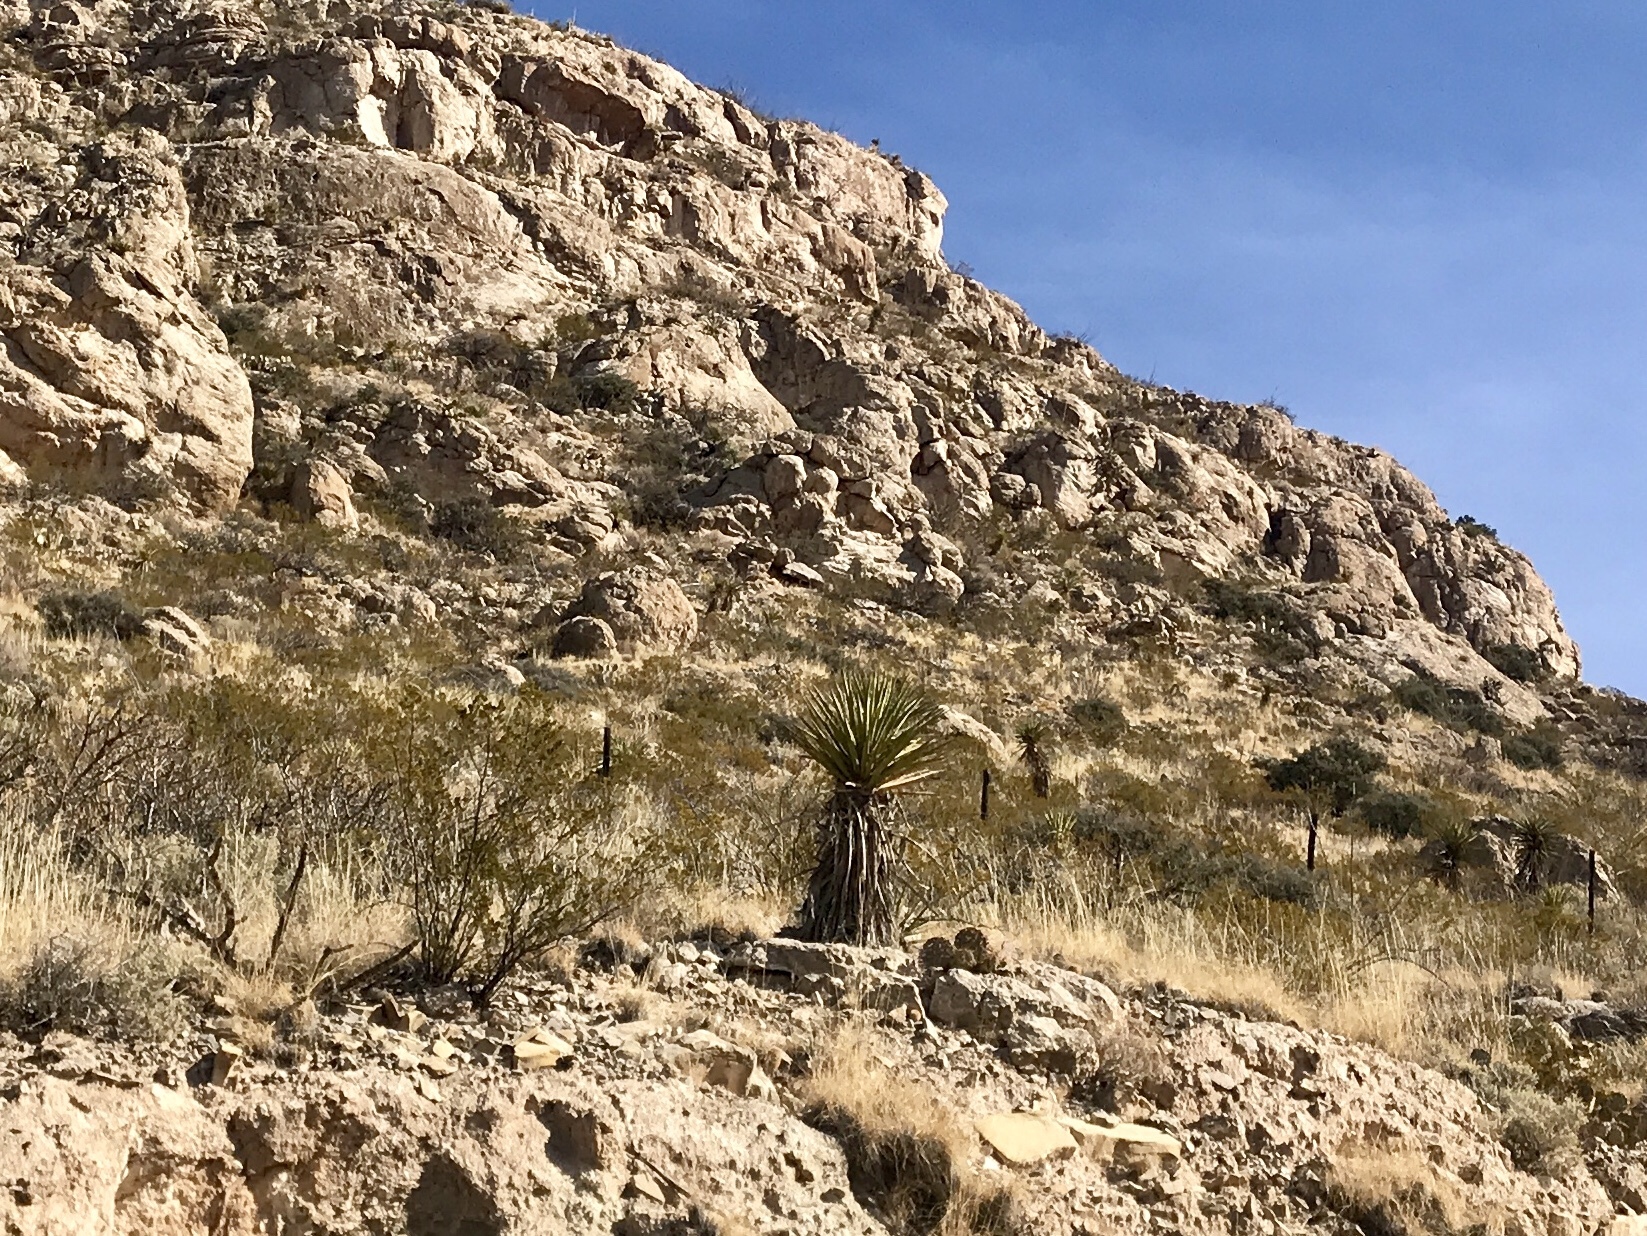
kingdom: Plantae
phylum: Tracheophyta
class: Liliopsida
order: Asparagales
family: Asparagaceae
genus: Yucca
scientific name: Yucca treculiana
